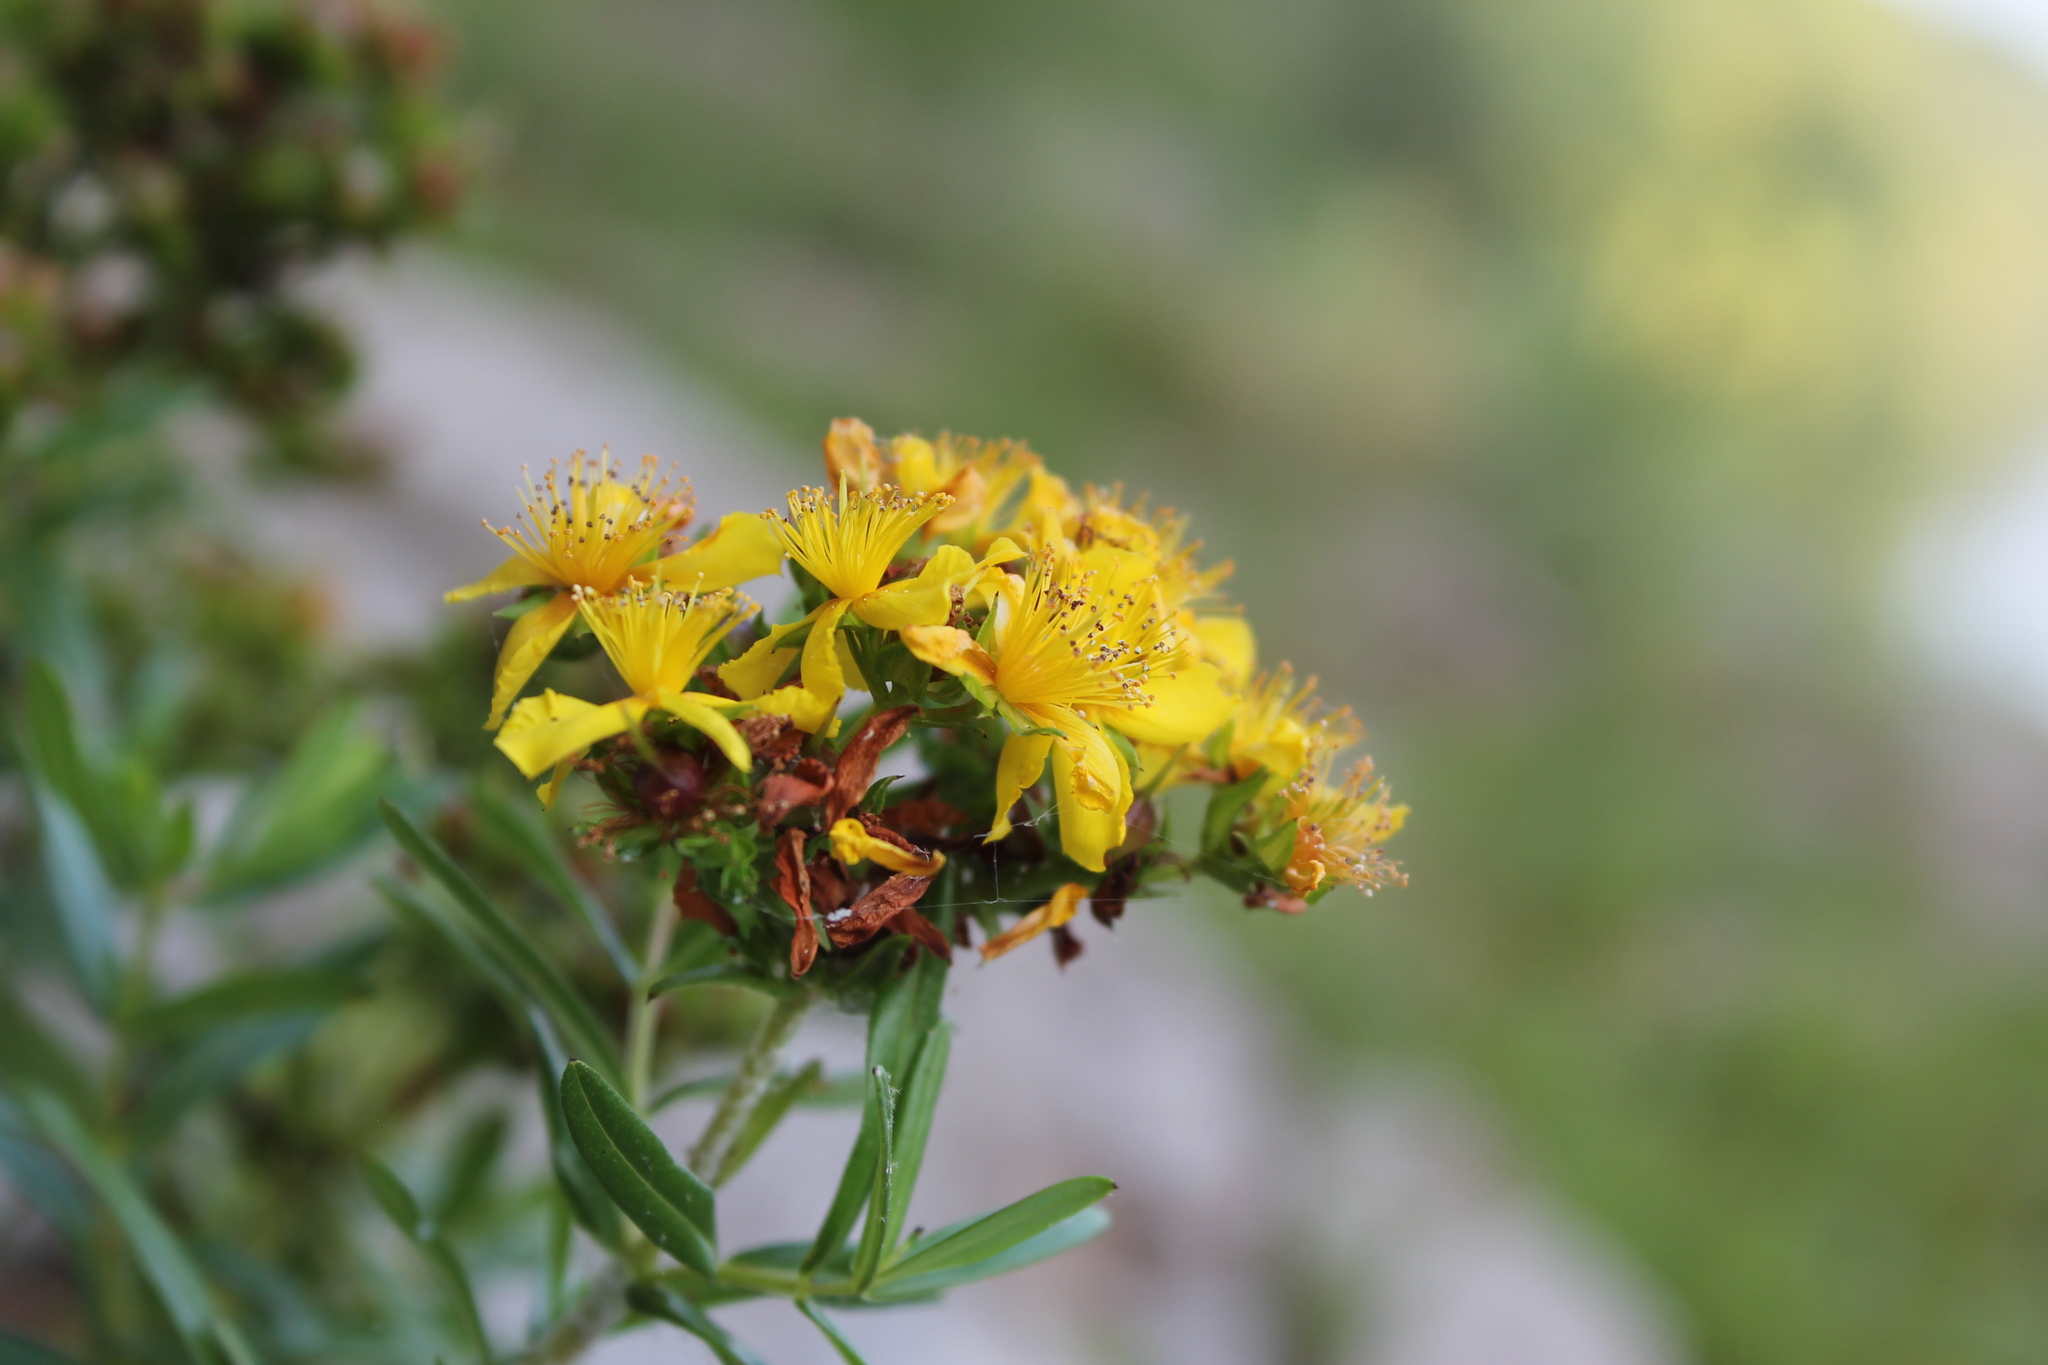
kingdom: Plantae
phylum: Tracheophyta
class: Magnoliopsida
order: Malpighiales
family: Hypericaceae
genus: Hypericum
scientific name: Hypericum sphaerocarpum
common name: Round-fruited st. john's-wort
